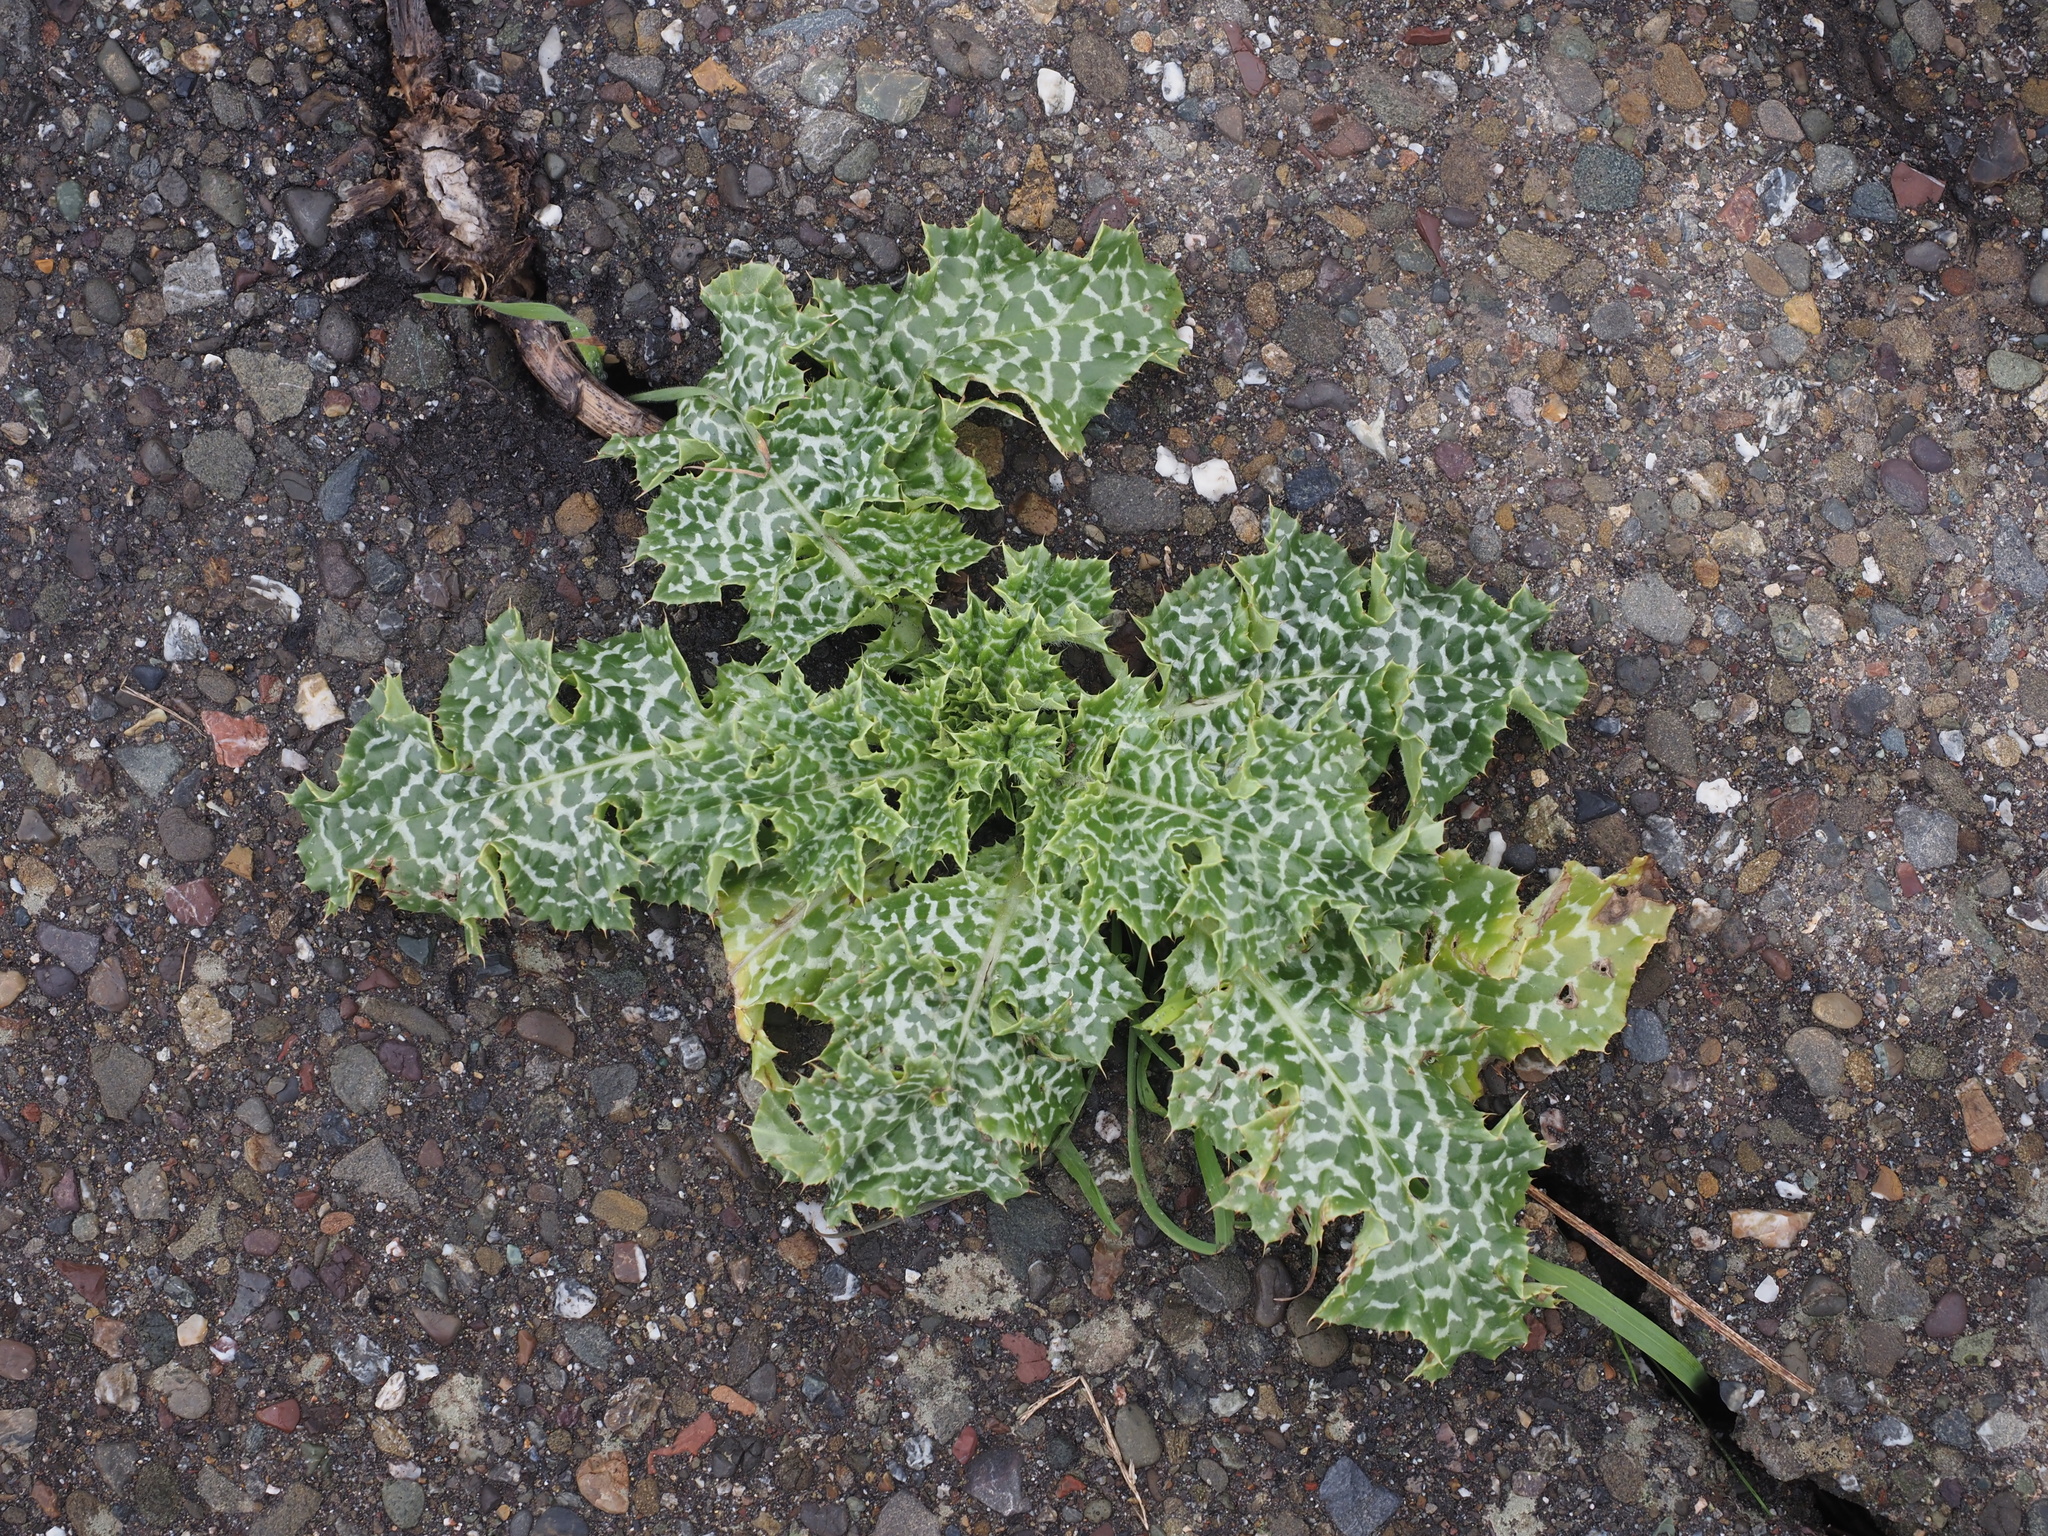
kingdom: Plantae
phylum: Tracheophyta
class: Magnoliopsida
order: Asterales
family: Asteraceae
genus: Silybum
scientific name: Silybum marianum
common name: Milk thistle
